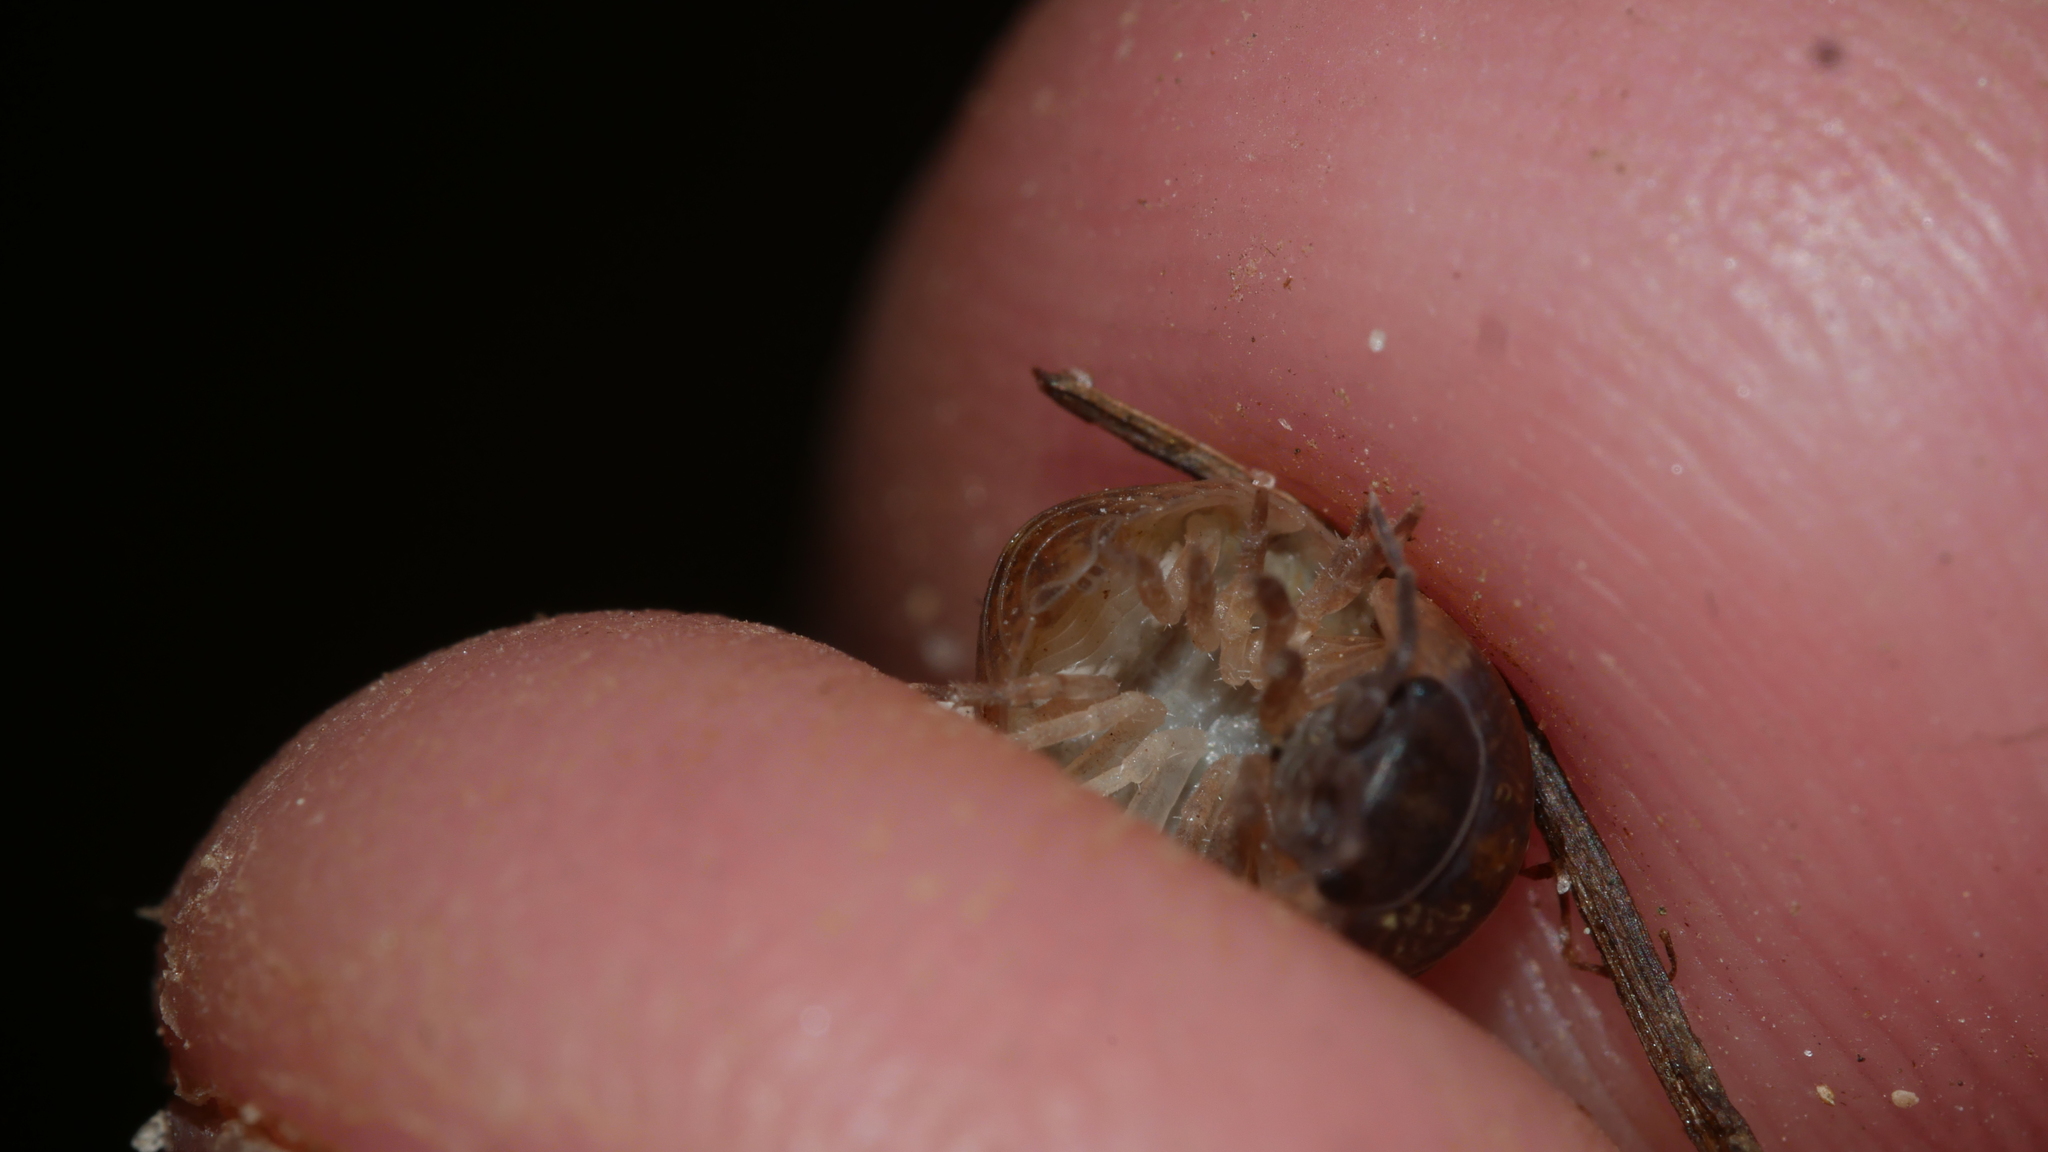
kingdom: Animalia
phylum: Arthropoda
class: Malacostraca
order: Isopoda
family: Armadillidiidae
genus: Armadillidium
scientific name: Armadillidium vulgare
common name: Common pill woodlouse
